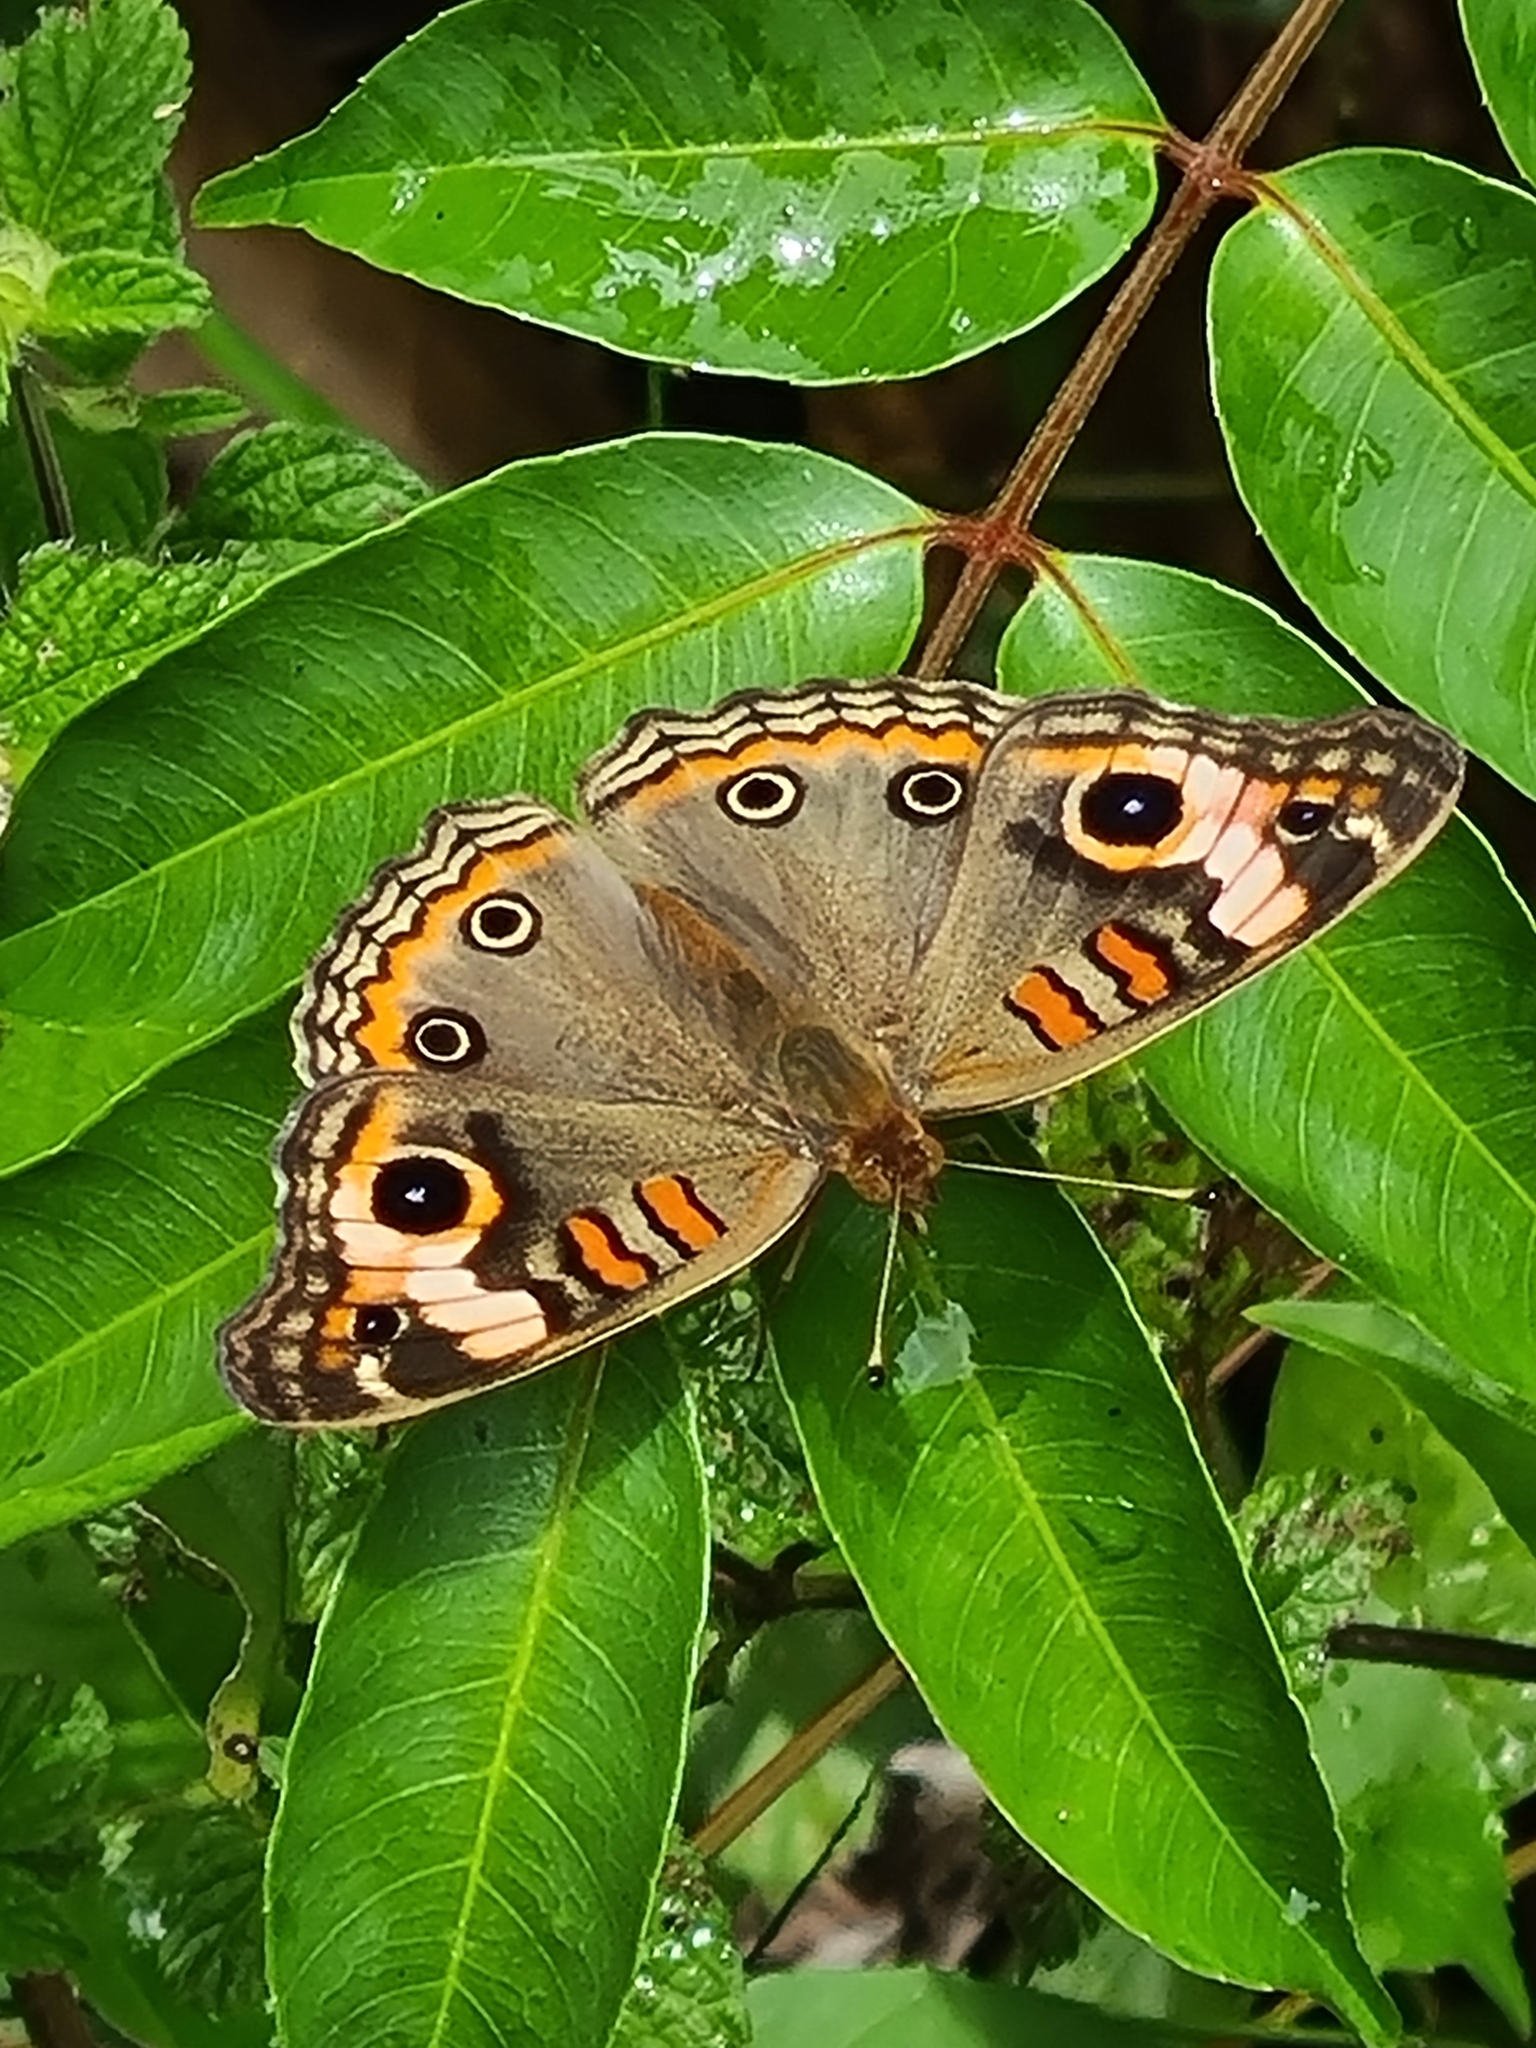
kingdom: Animalia
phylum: Arthropoda
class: Insecta
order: Lepidoptera
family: Nymphalidae
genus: Junonia
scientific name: Junonia evarete
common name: Black mangrove buckeye
